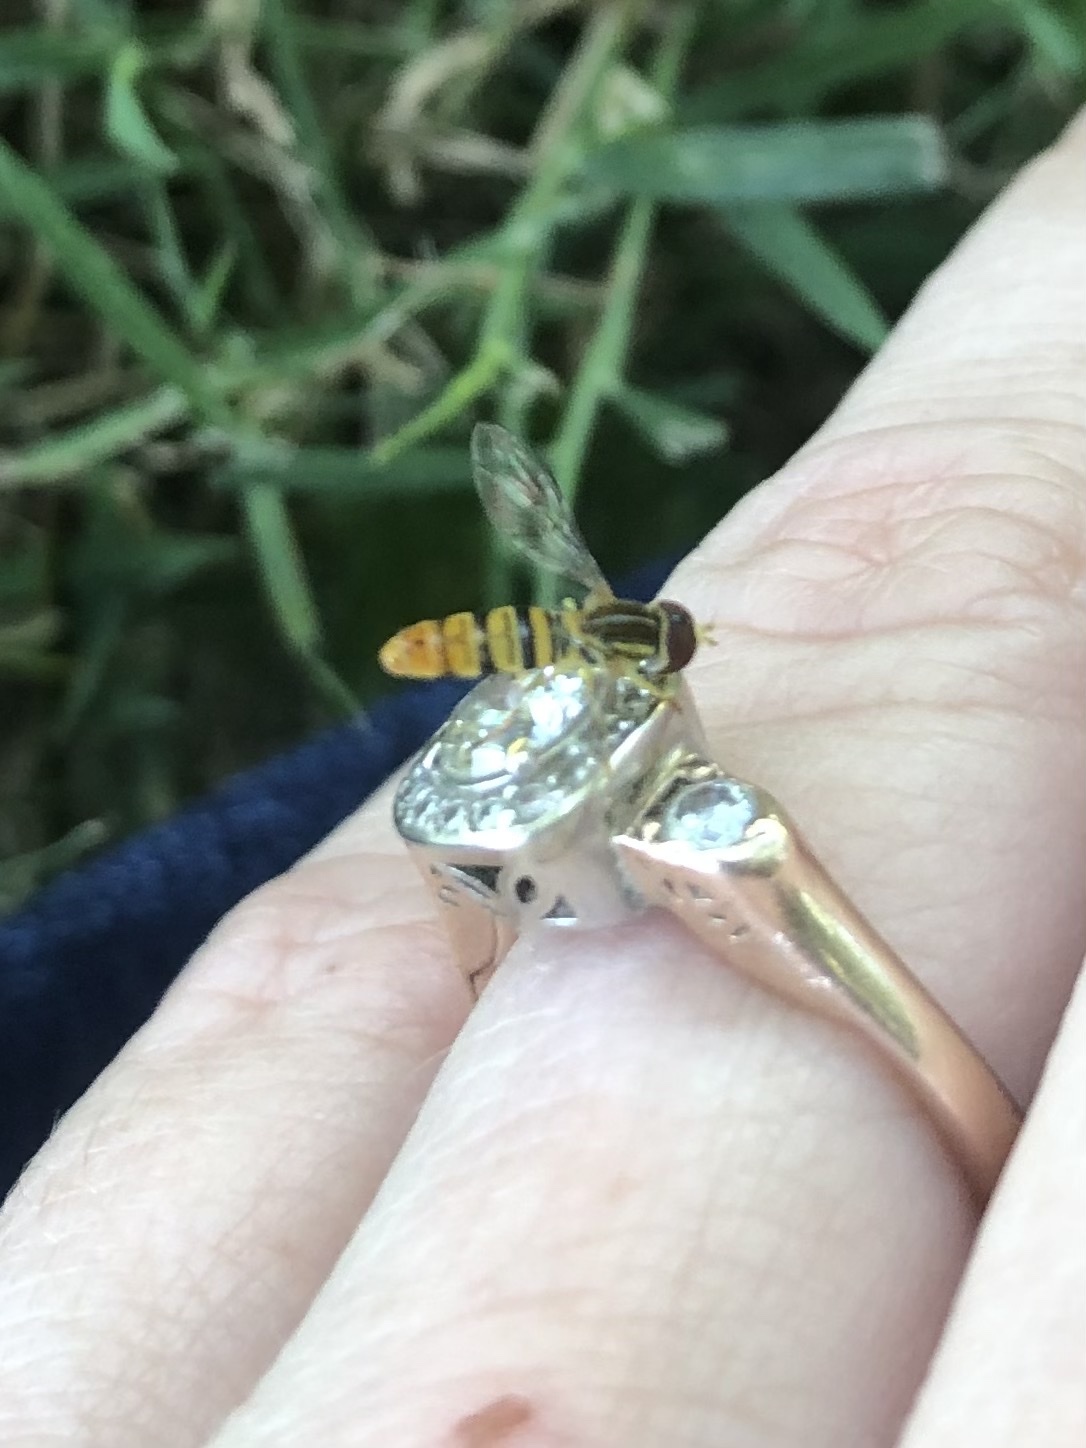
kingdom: Animalia
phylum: Arthropoda
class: Insecta
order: Diptera
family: Syrphidae
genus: Toxomerus
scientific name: Toxomerus politus
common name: Maize calligrapher
